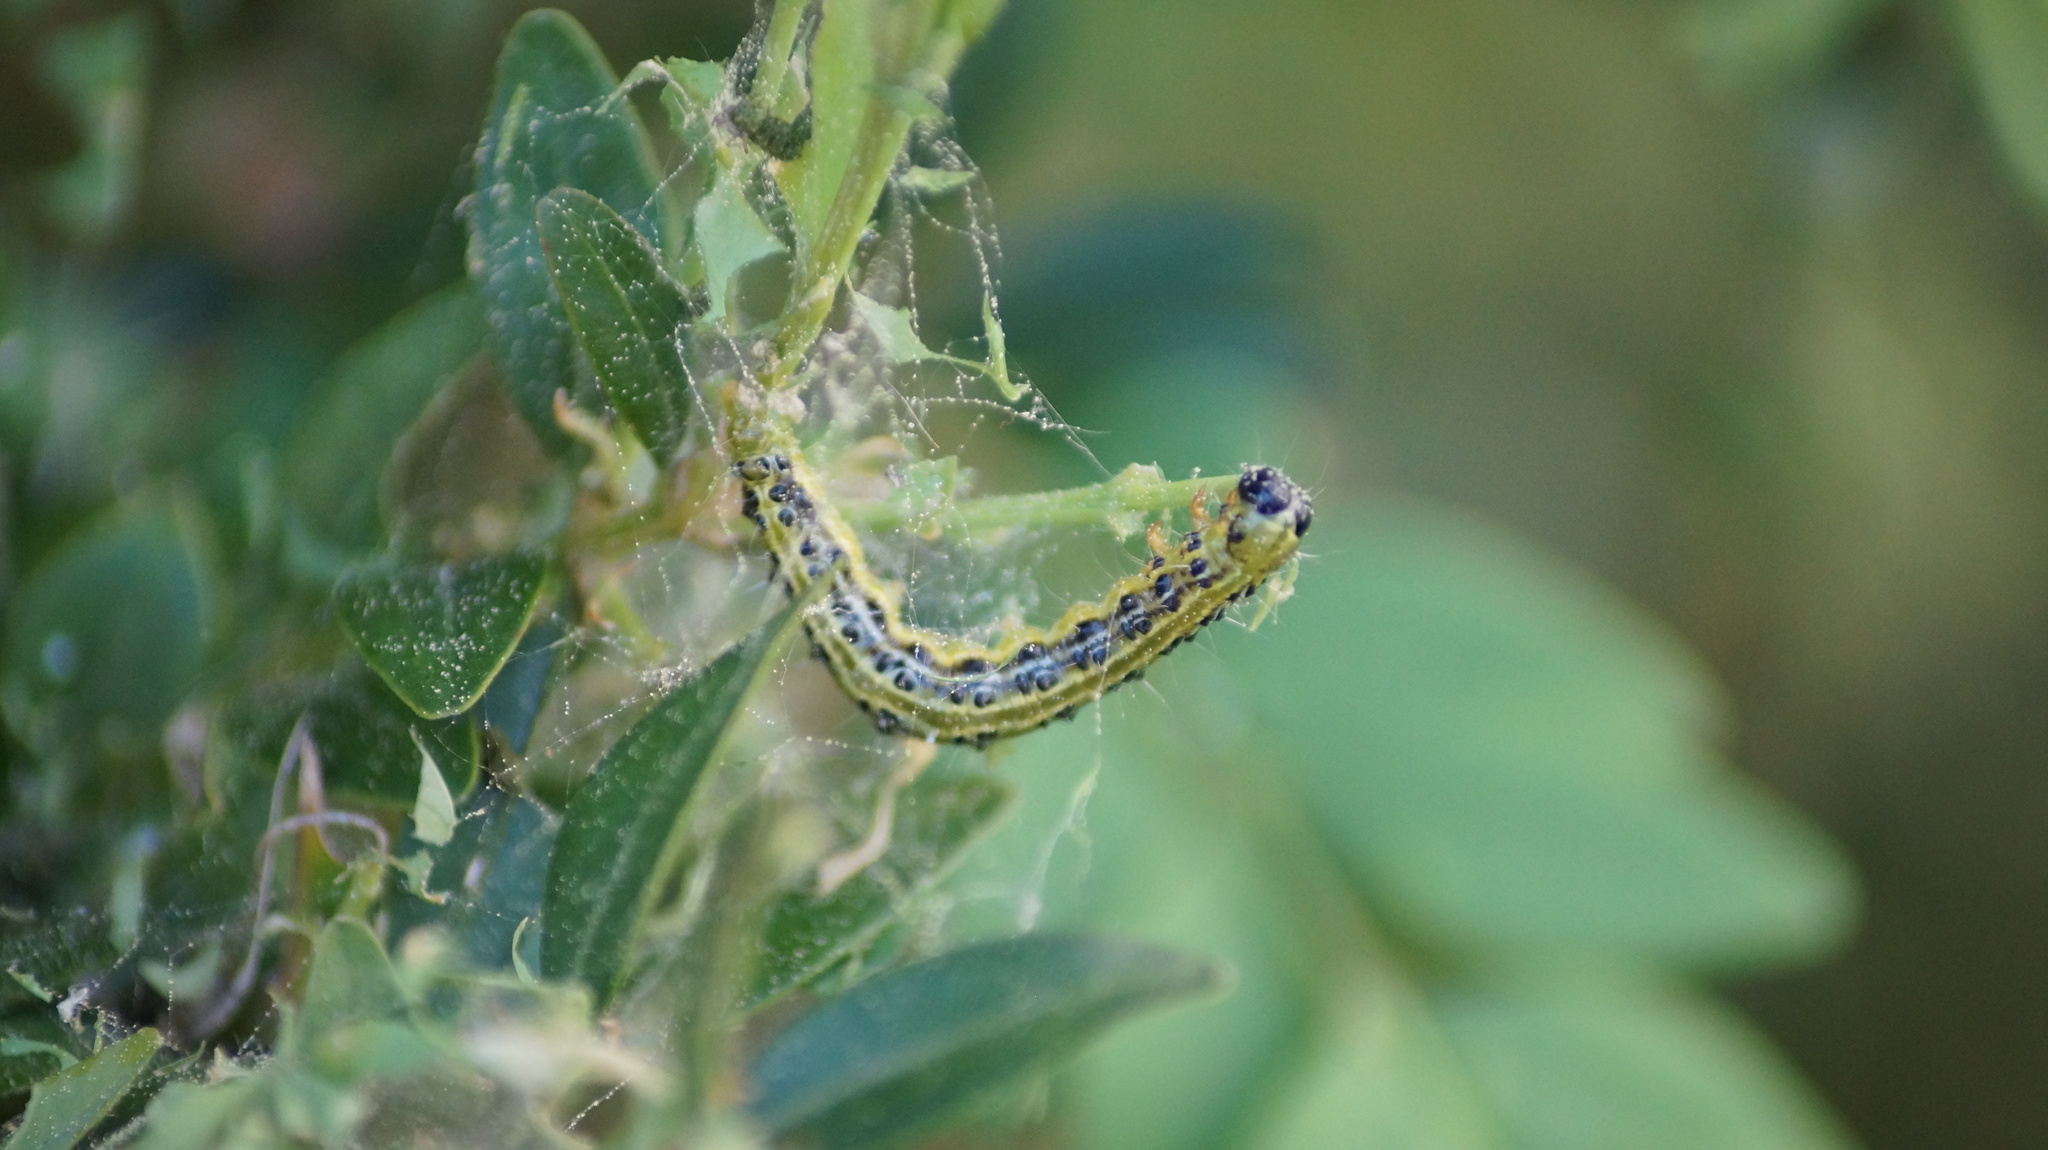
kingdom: Animalia
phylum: Arthropoda
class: Insecta
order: Lepidoptera
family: Crambidae
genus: Cydalima
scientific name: Cydalima perspectalis
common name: Box tree moth
